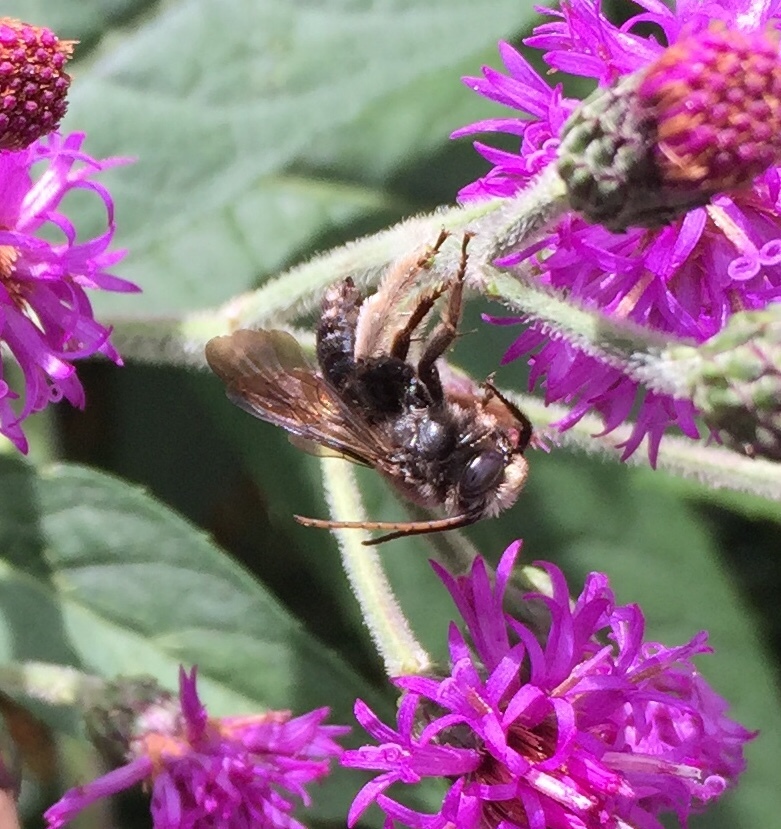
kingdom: Animalia
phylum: Arthropoda
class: Insecta
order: Hymenoptera
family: Apidae
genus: Melissodes
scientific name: Melissodes bimaculatus
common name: Two-spotted long-horned bee
